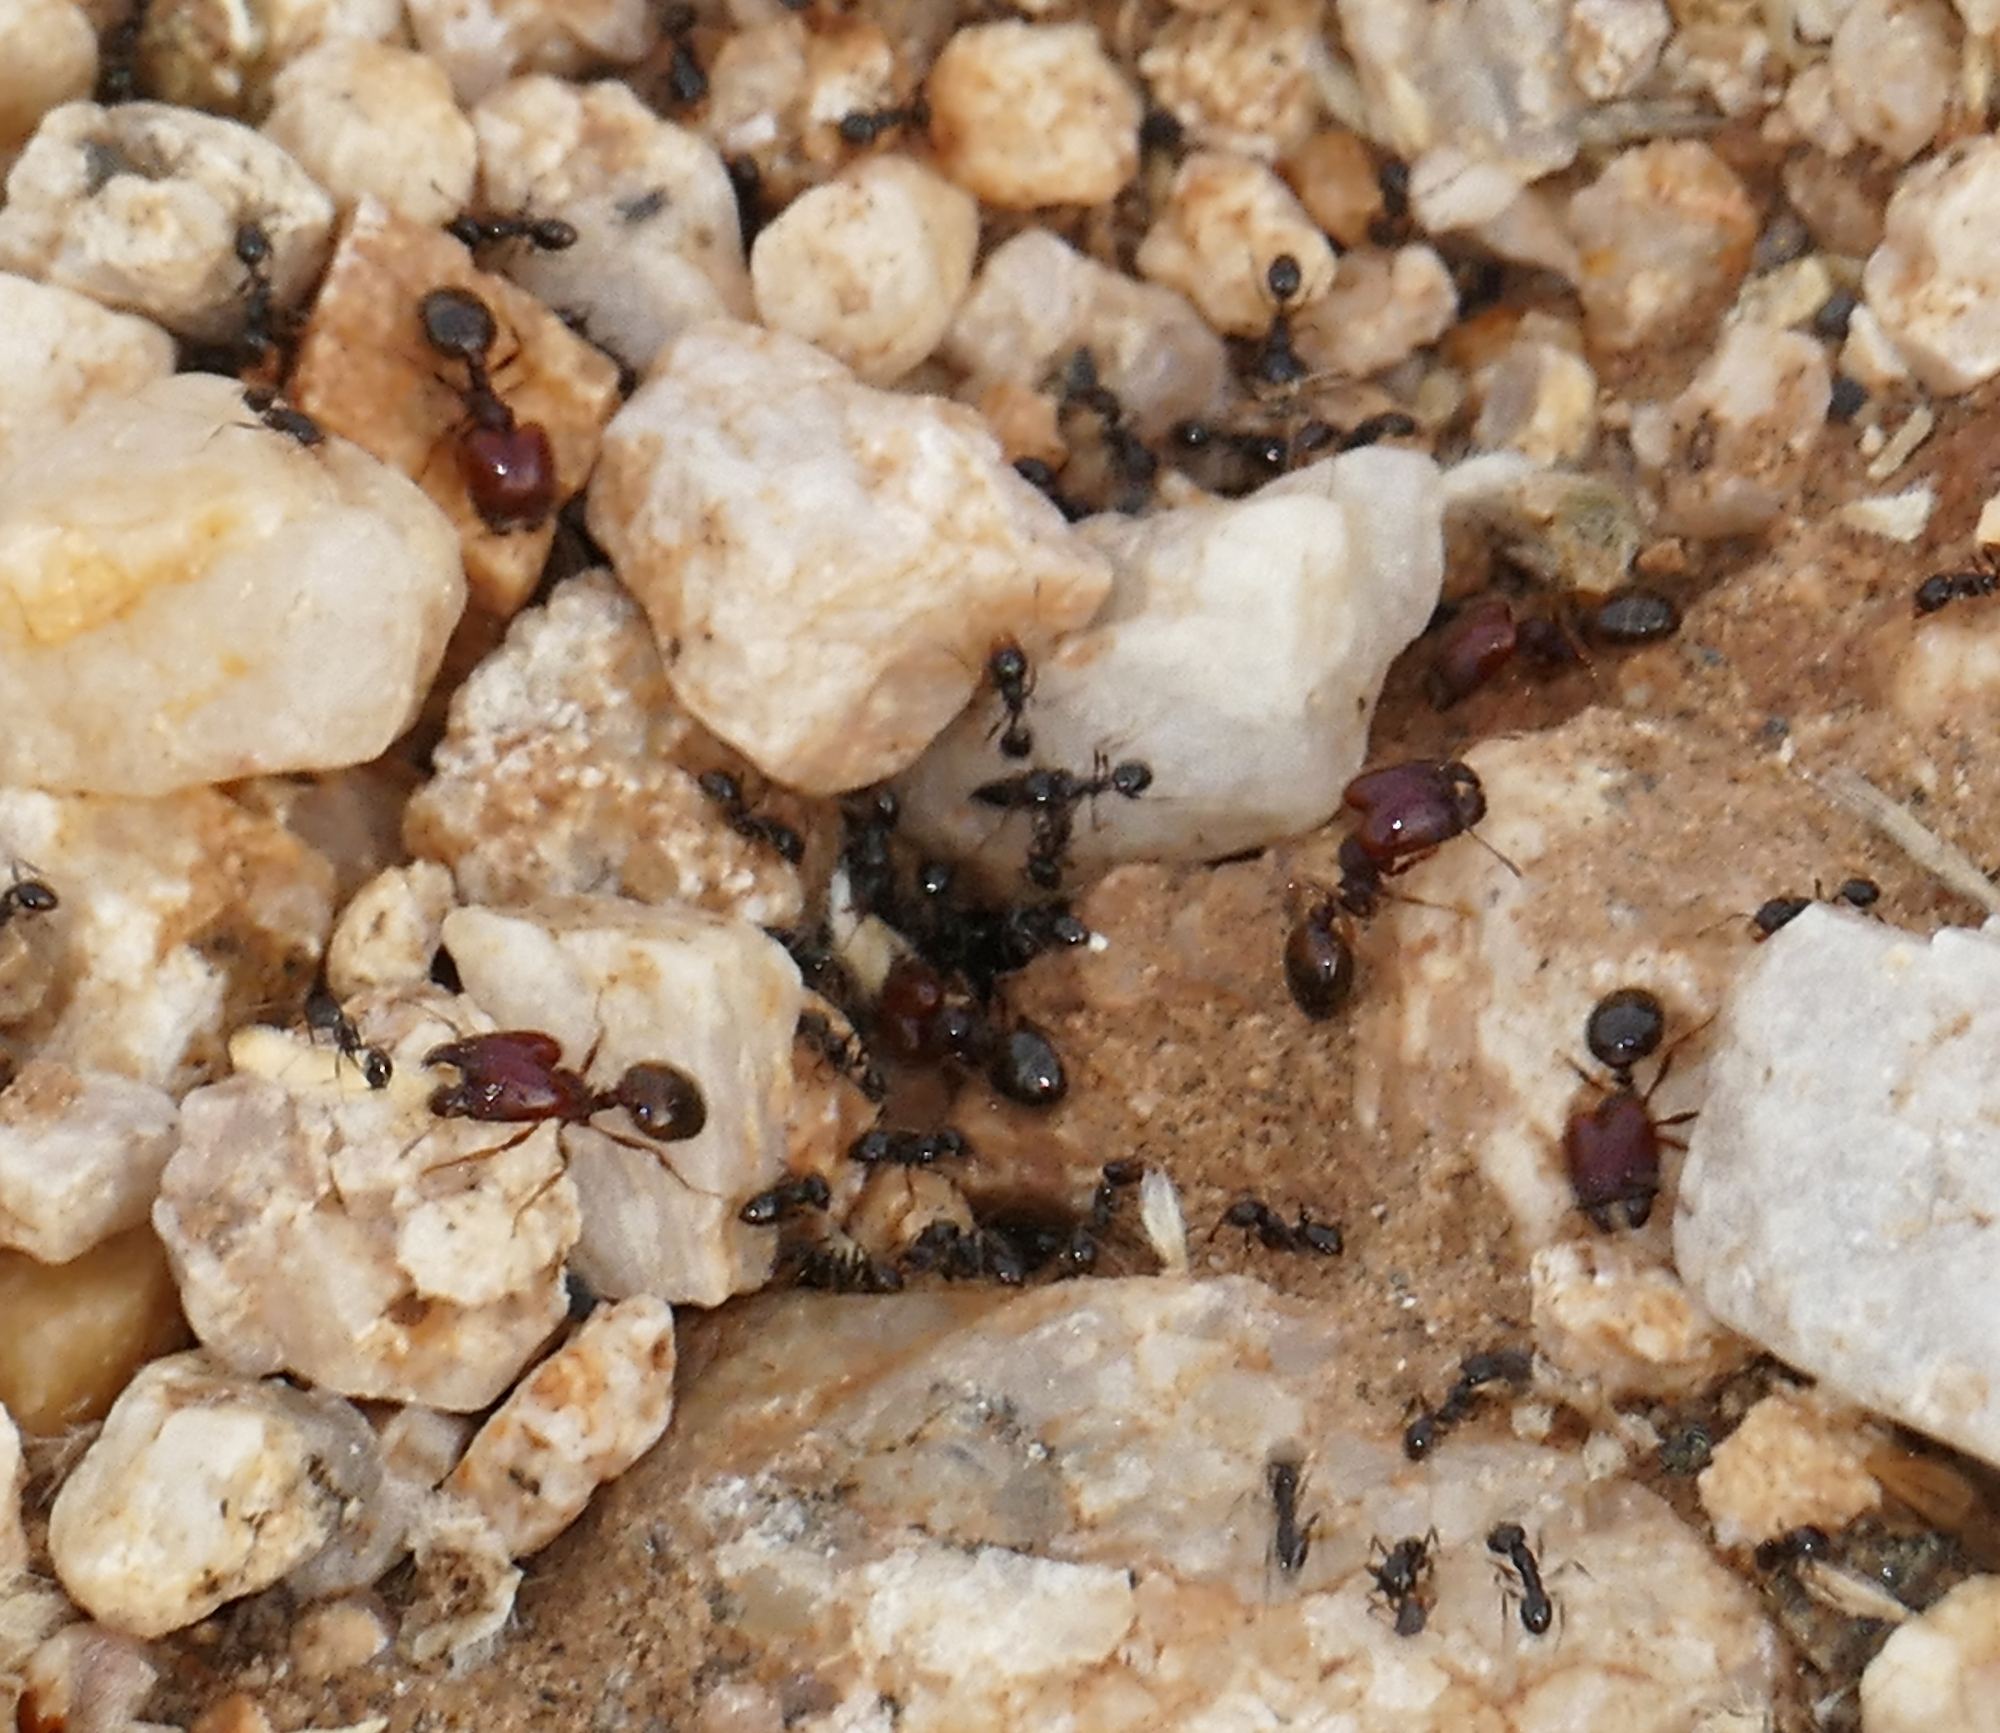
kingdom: Animalia
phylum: Arthropoda
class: Insecta
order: Hymenoptera
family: Formicidae
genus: Pheidole
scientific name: Pheidole xerophila
